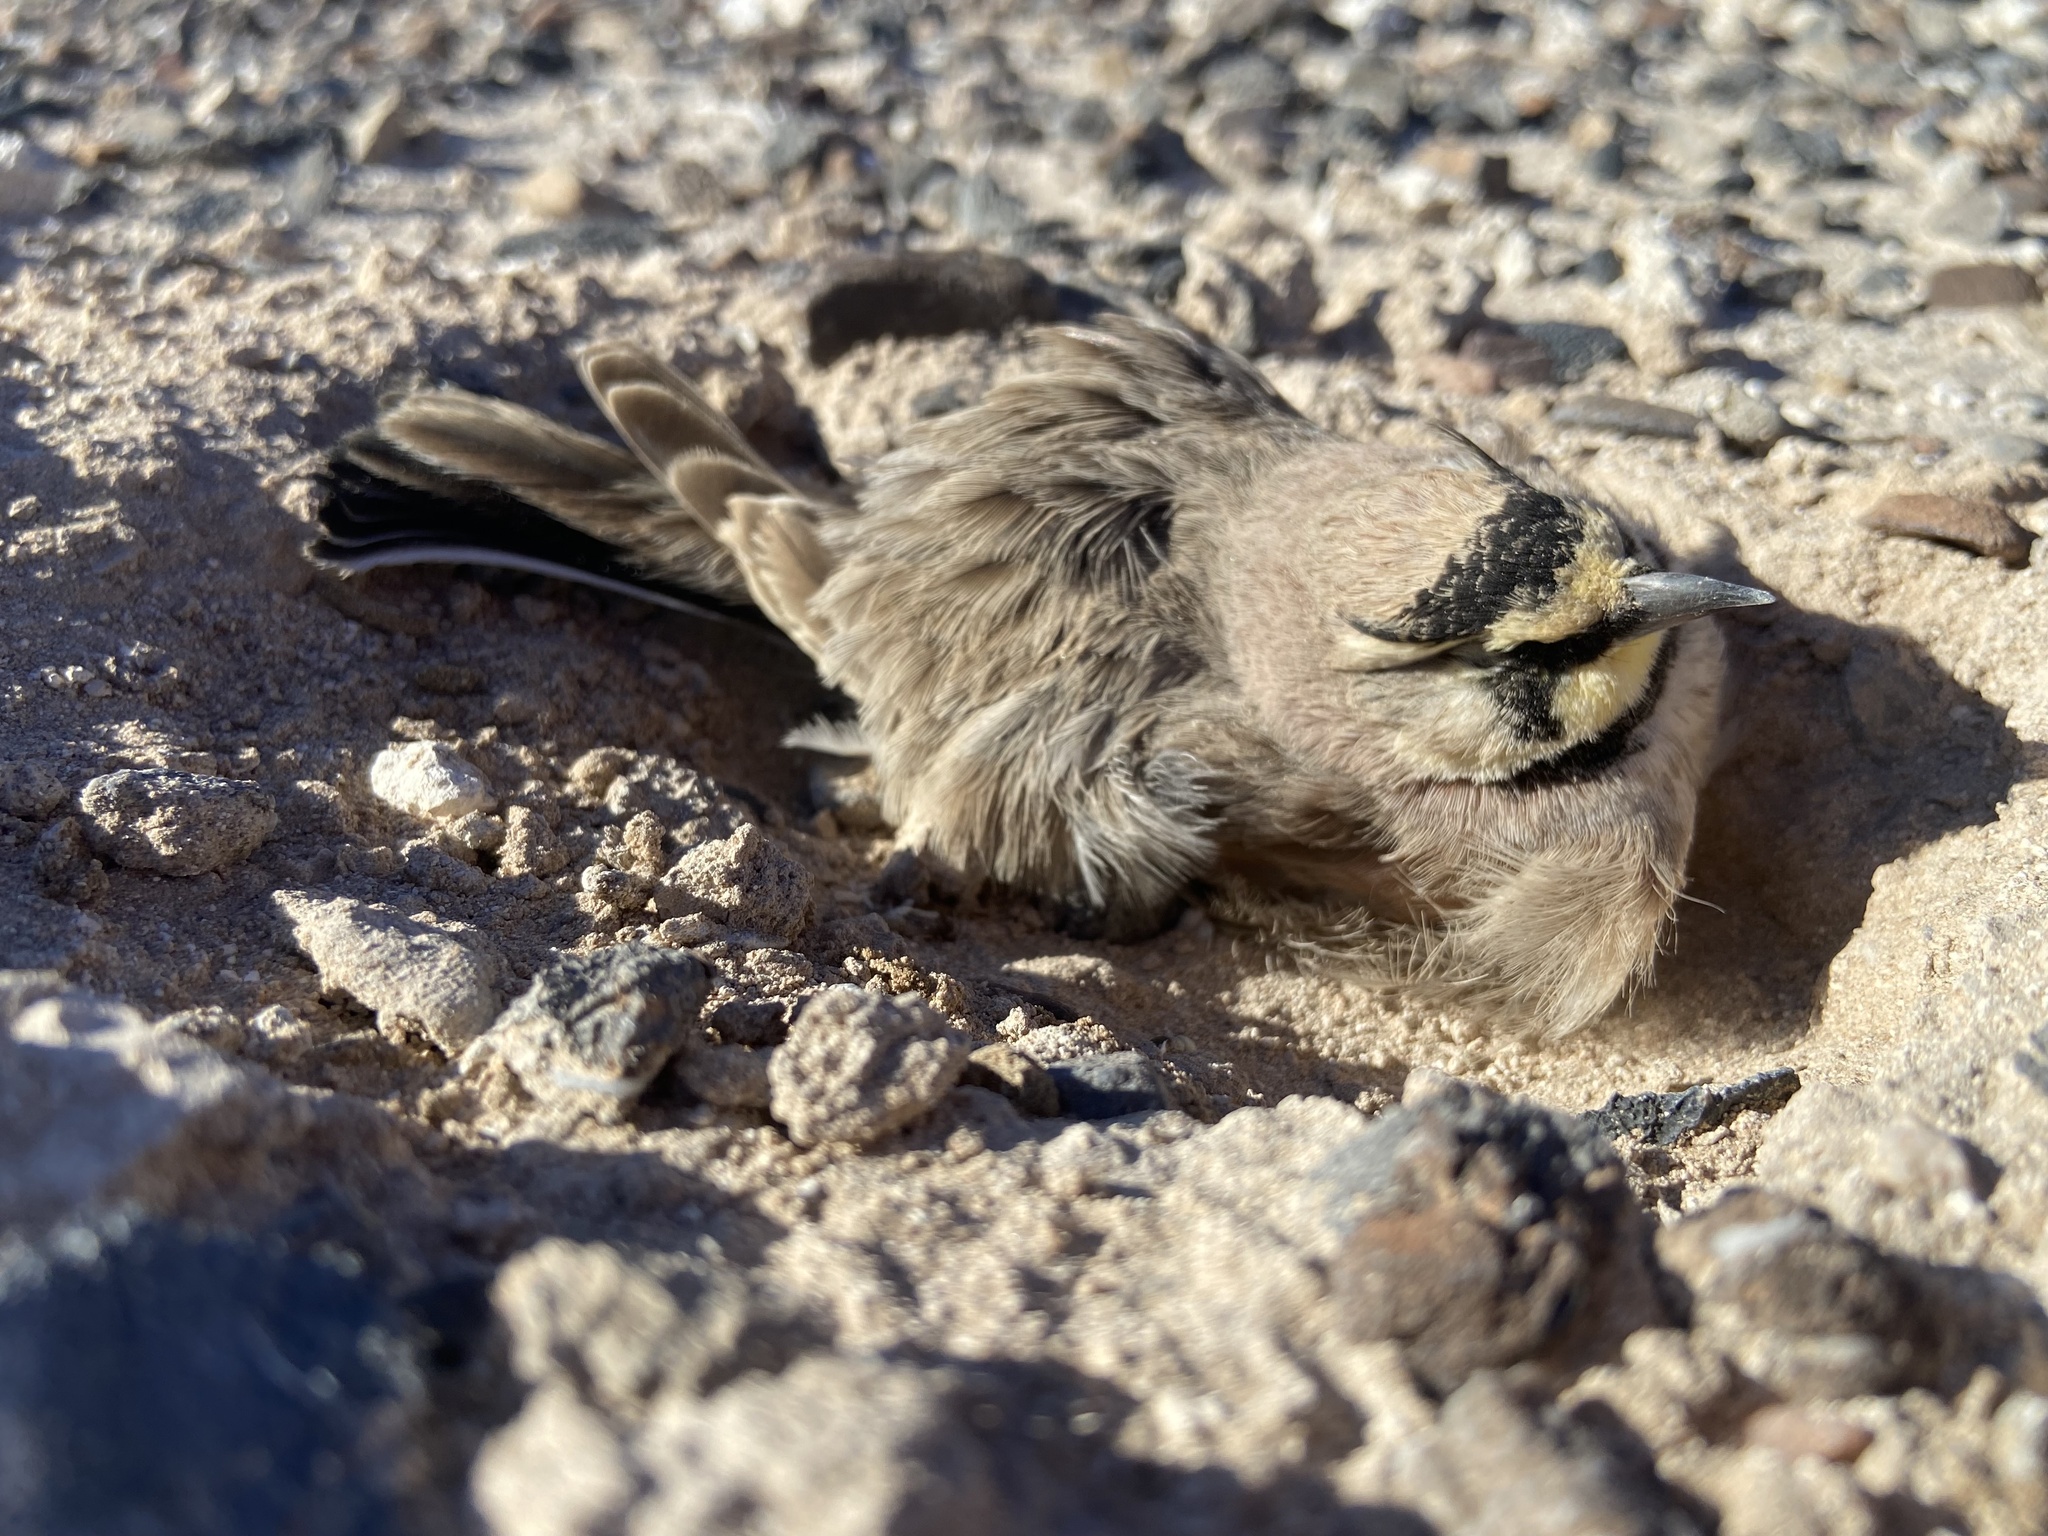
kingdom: Animalia
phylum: Chordata
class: Aves
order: Passeriformes
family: Alaudidae
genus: Eremophila
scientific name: Eremophila alpestris
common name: Horned lark
